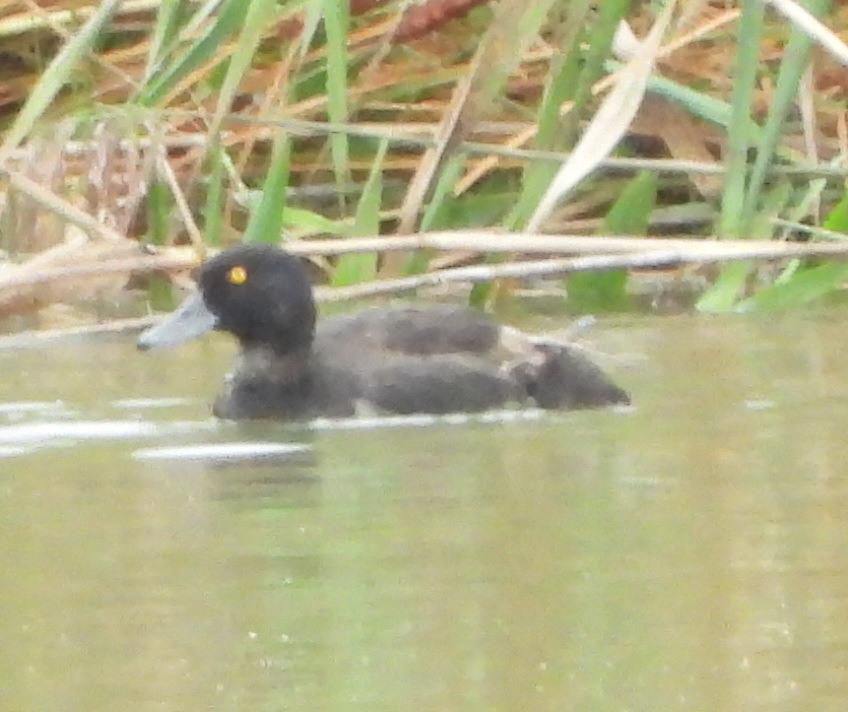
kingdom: Animalia
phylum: Chordata
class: Aves
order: Anseriformes
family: Anatidae
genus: Aythya
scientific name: Aythya fuligula
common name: Tufted duck
